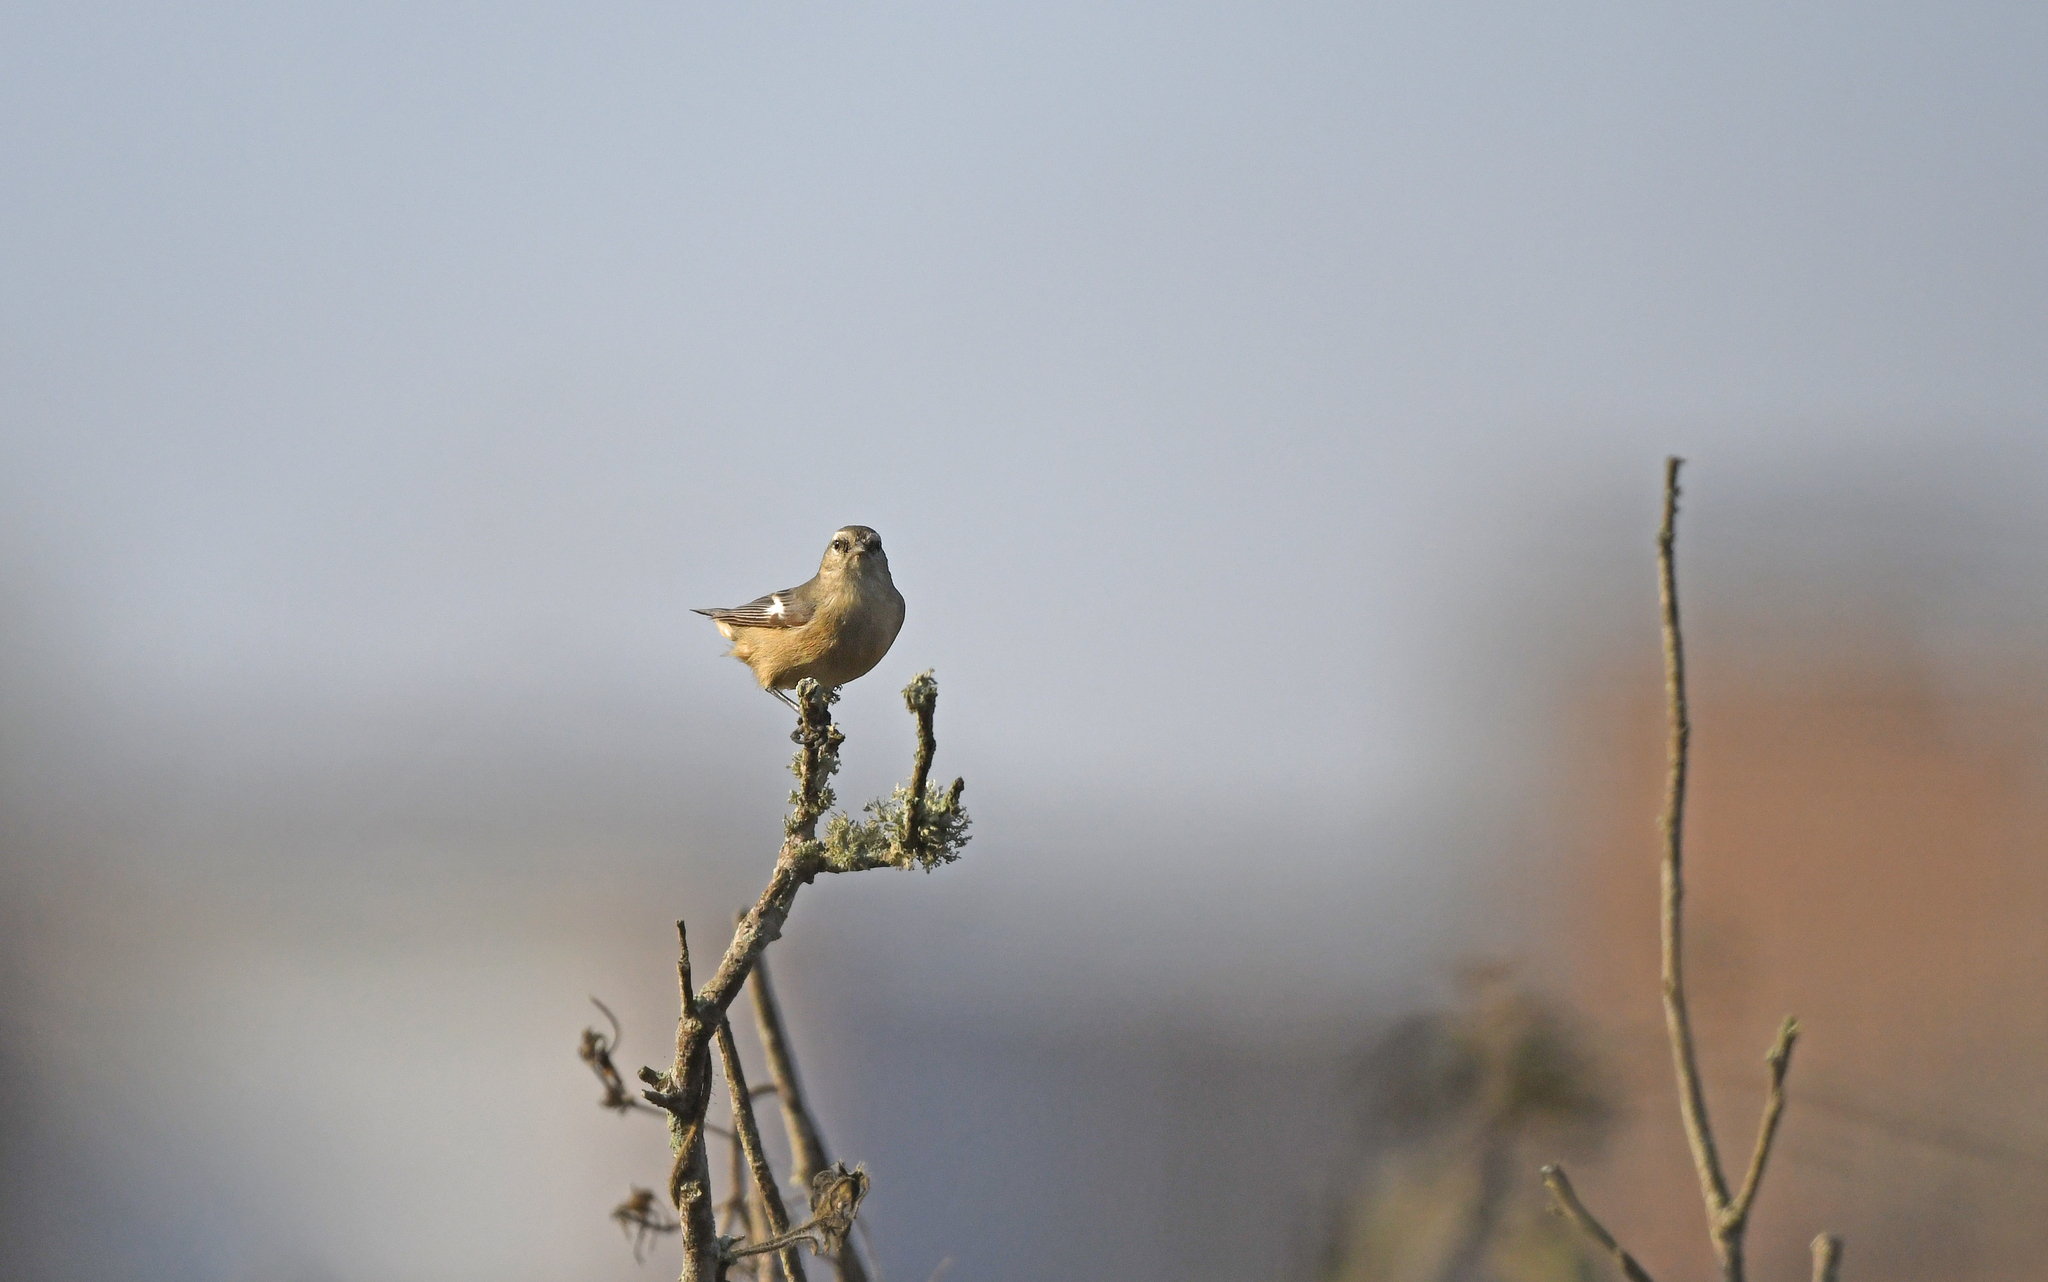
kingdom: Animalia
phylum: Chordata
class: Aves
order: Passeriformes
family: Thraupidae
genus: Conirostrum
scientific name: Conirostrum cinereum
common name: Cinereous conebill
